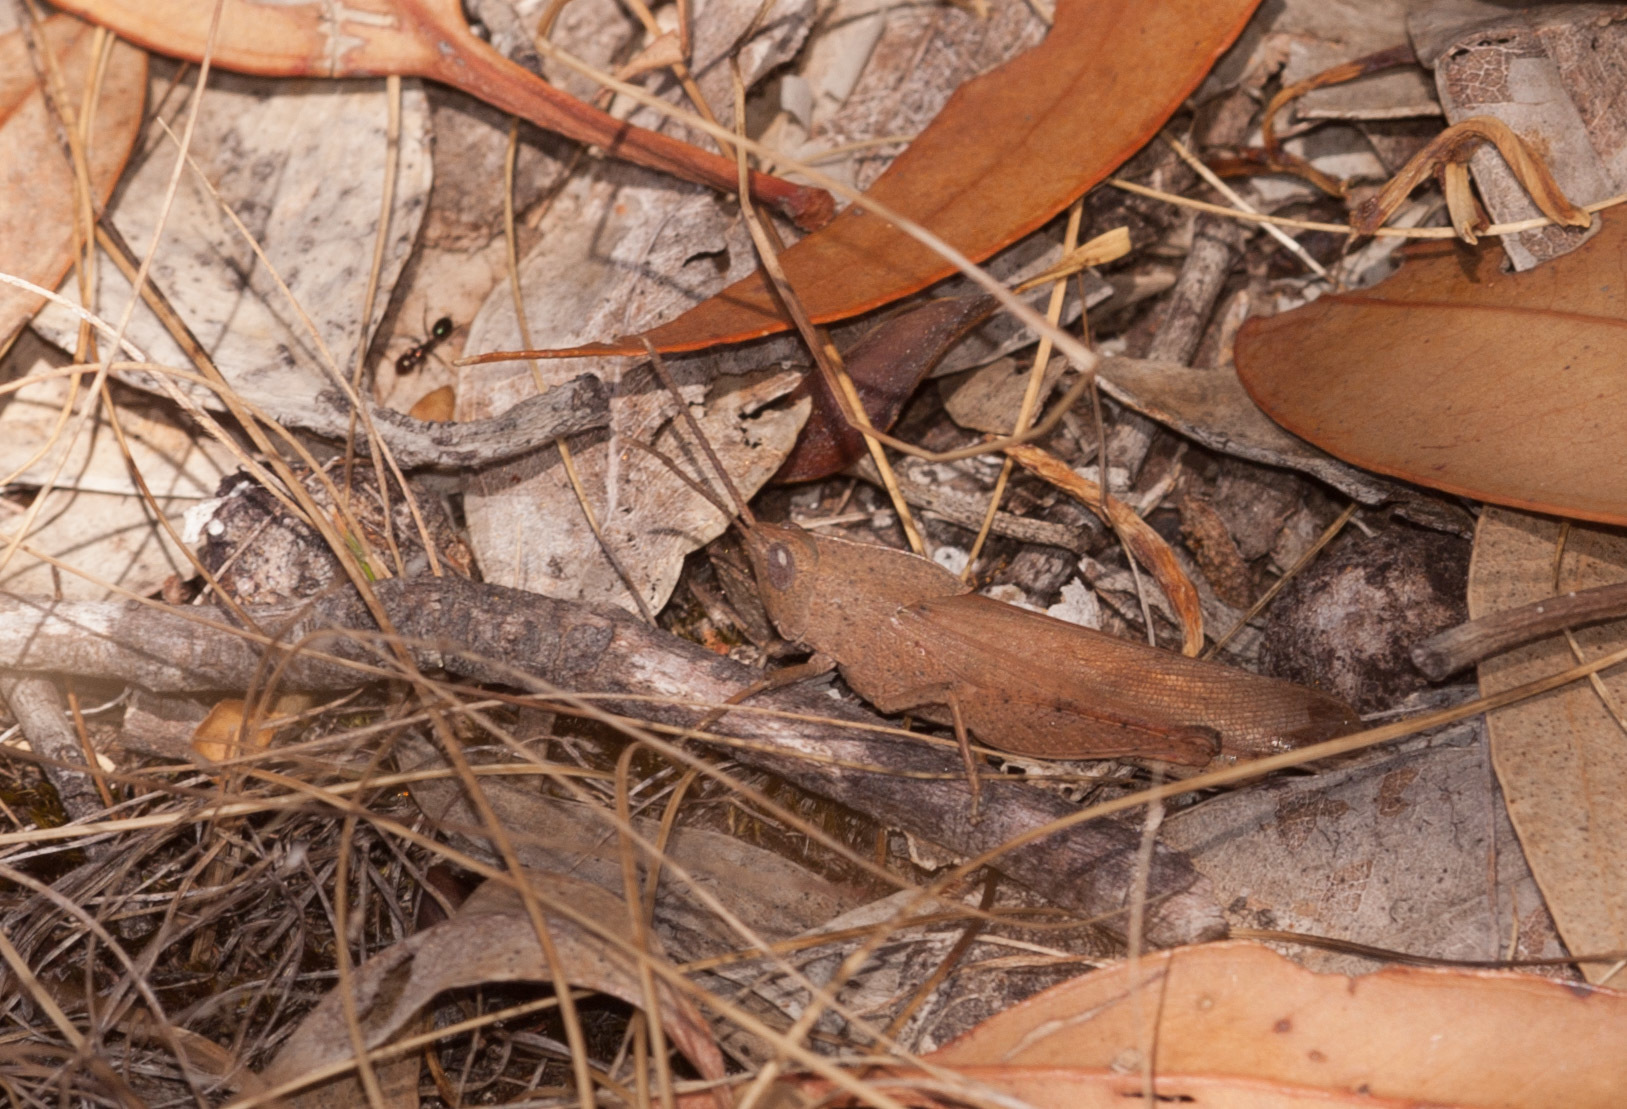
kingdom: Animalia
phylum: Arthropoda
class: Insecta
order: Orthoptera
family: Acrididae
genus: Goniaea
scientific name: Goniaea australasiae
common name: Gumleaf grasshopper
